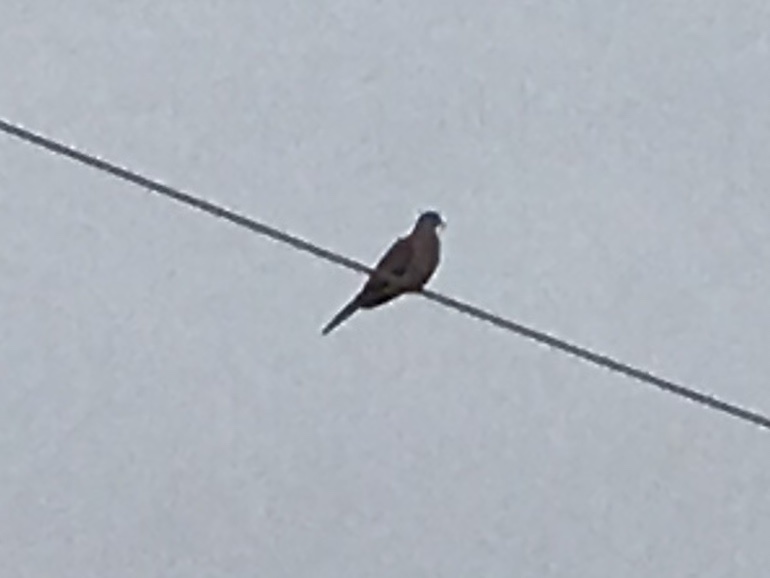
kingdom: Animalia
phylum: Chordata
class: Aves
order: Columbiformes
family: Columbidae
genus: Zenaida
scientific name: Zenaida macroura
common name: Mourning dove
